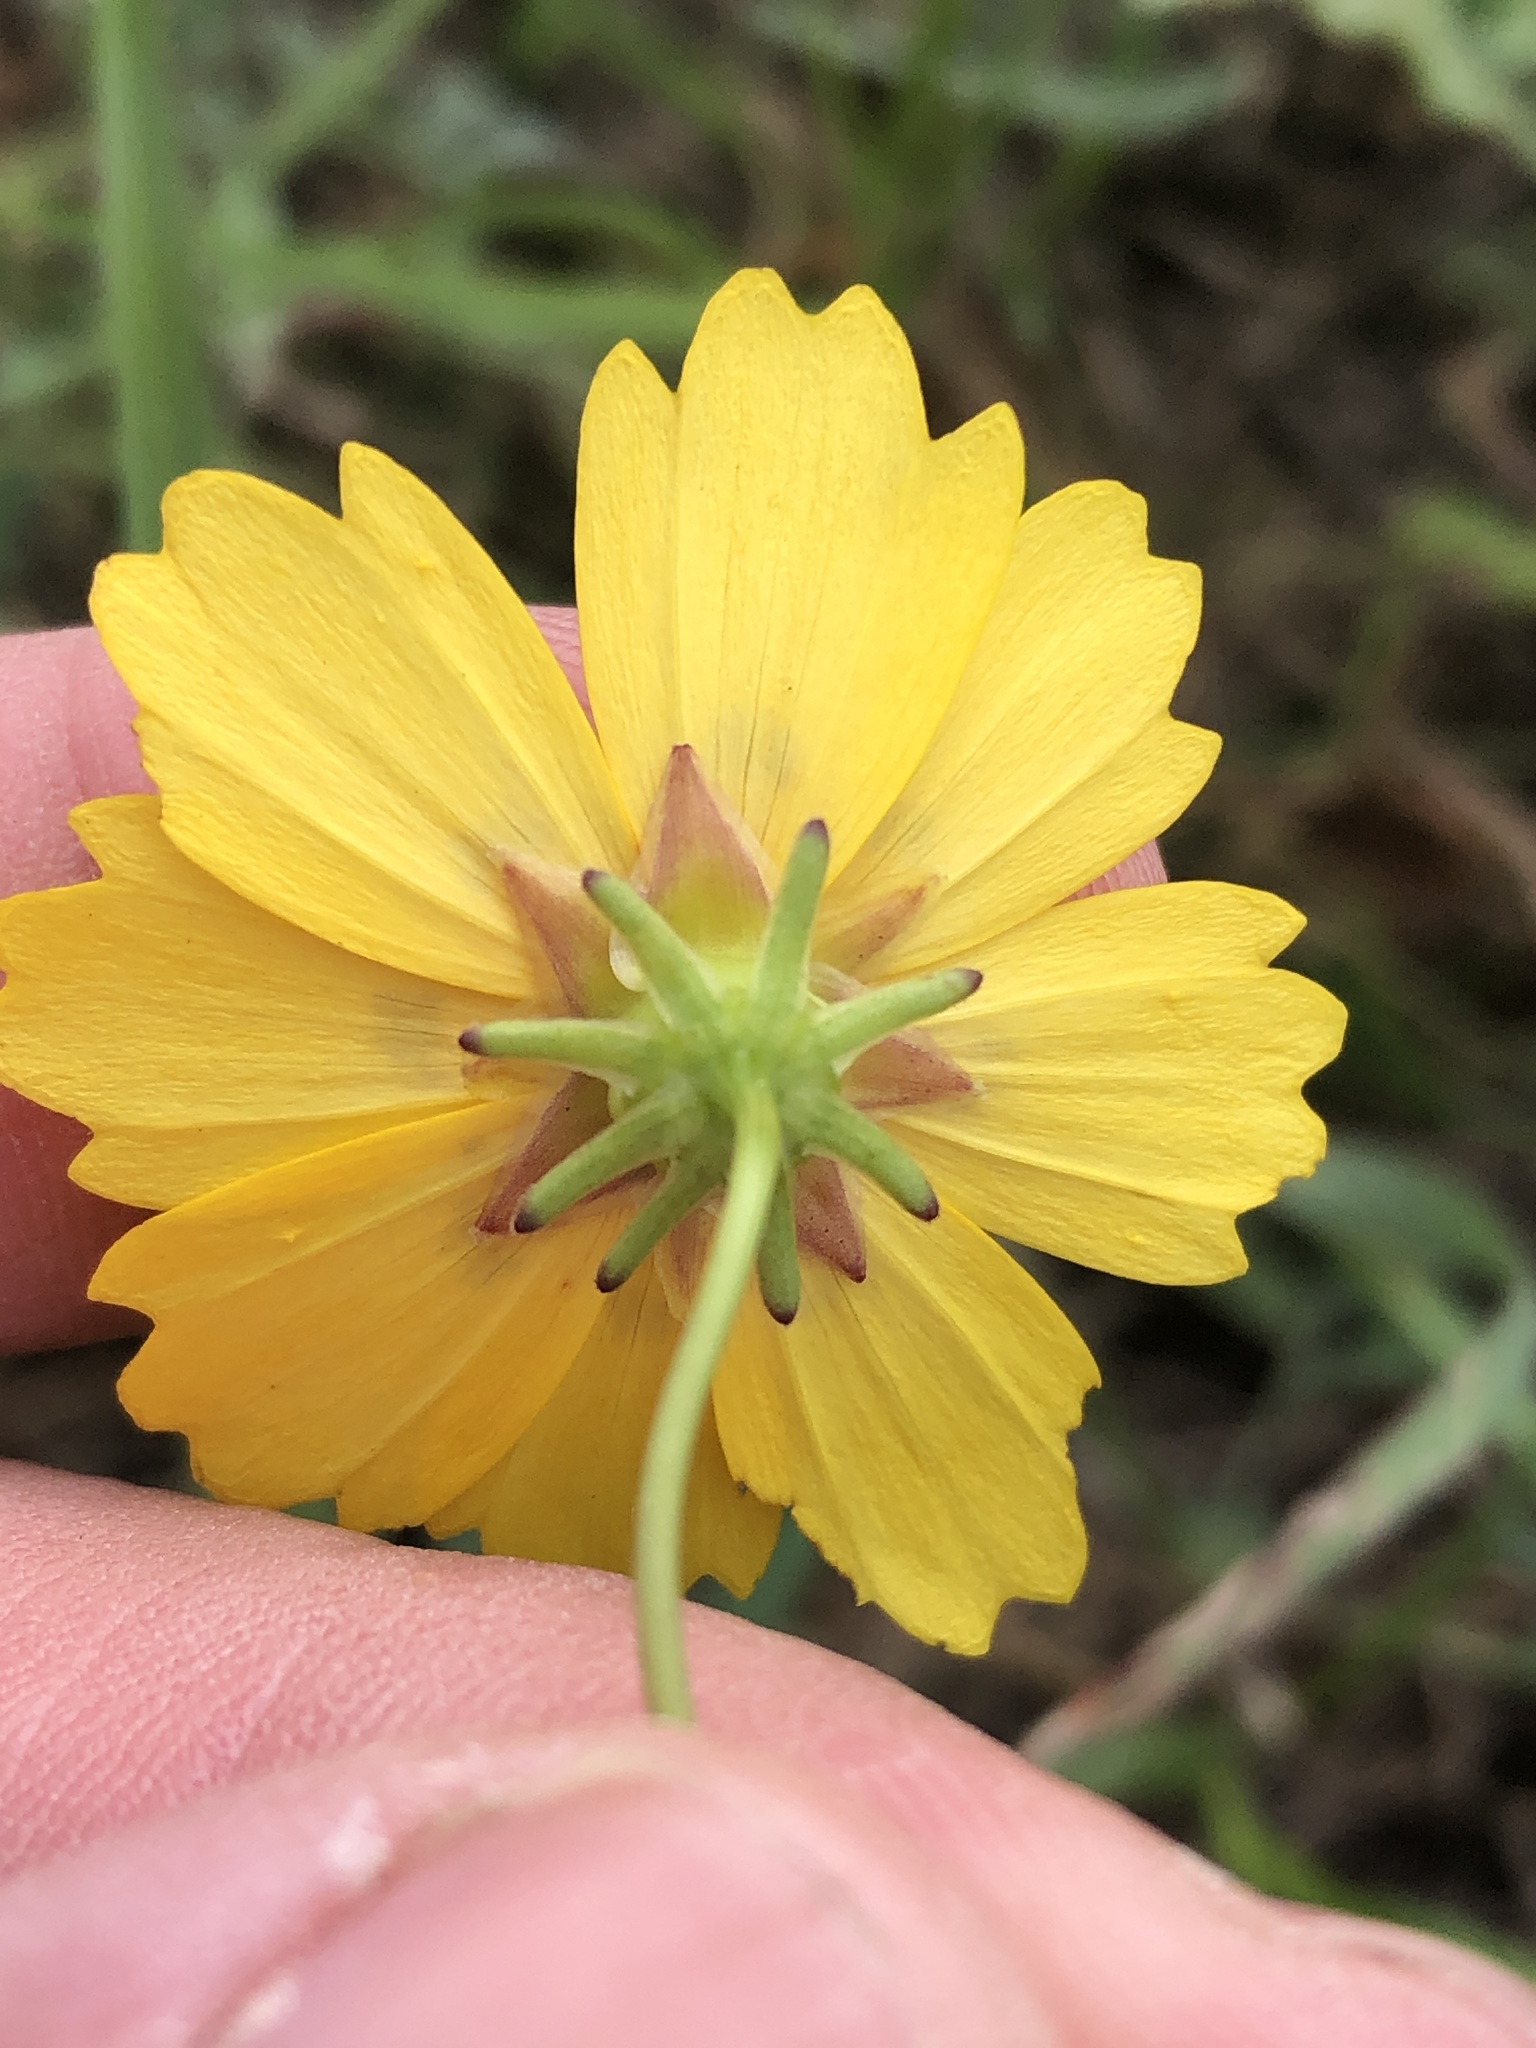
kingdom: Plantae
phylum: Tracheophyta
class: Magnoliopsida
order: Asterales
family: Asteraceae
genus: Coreopsis
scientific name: Coreopsis nuecensis
